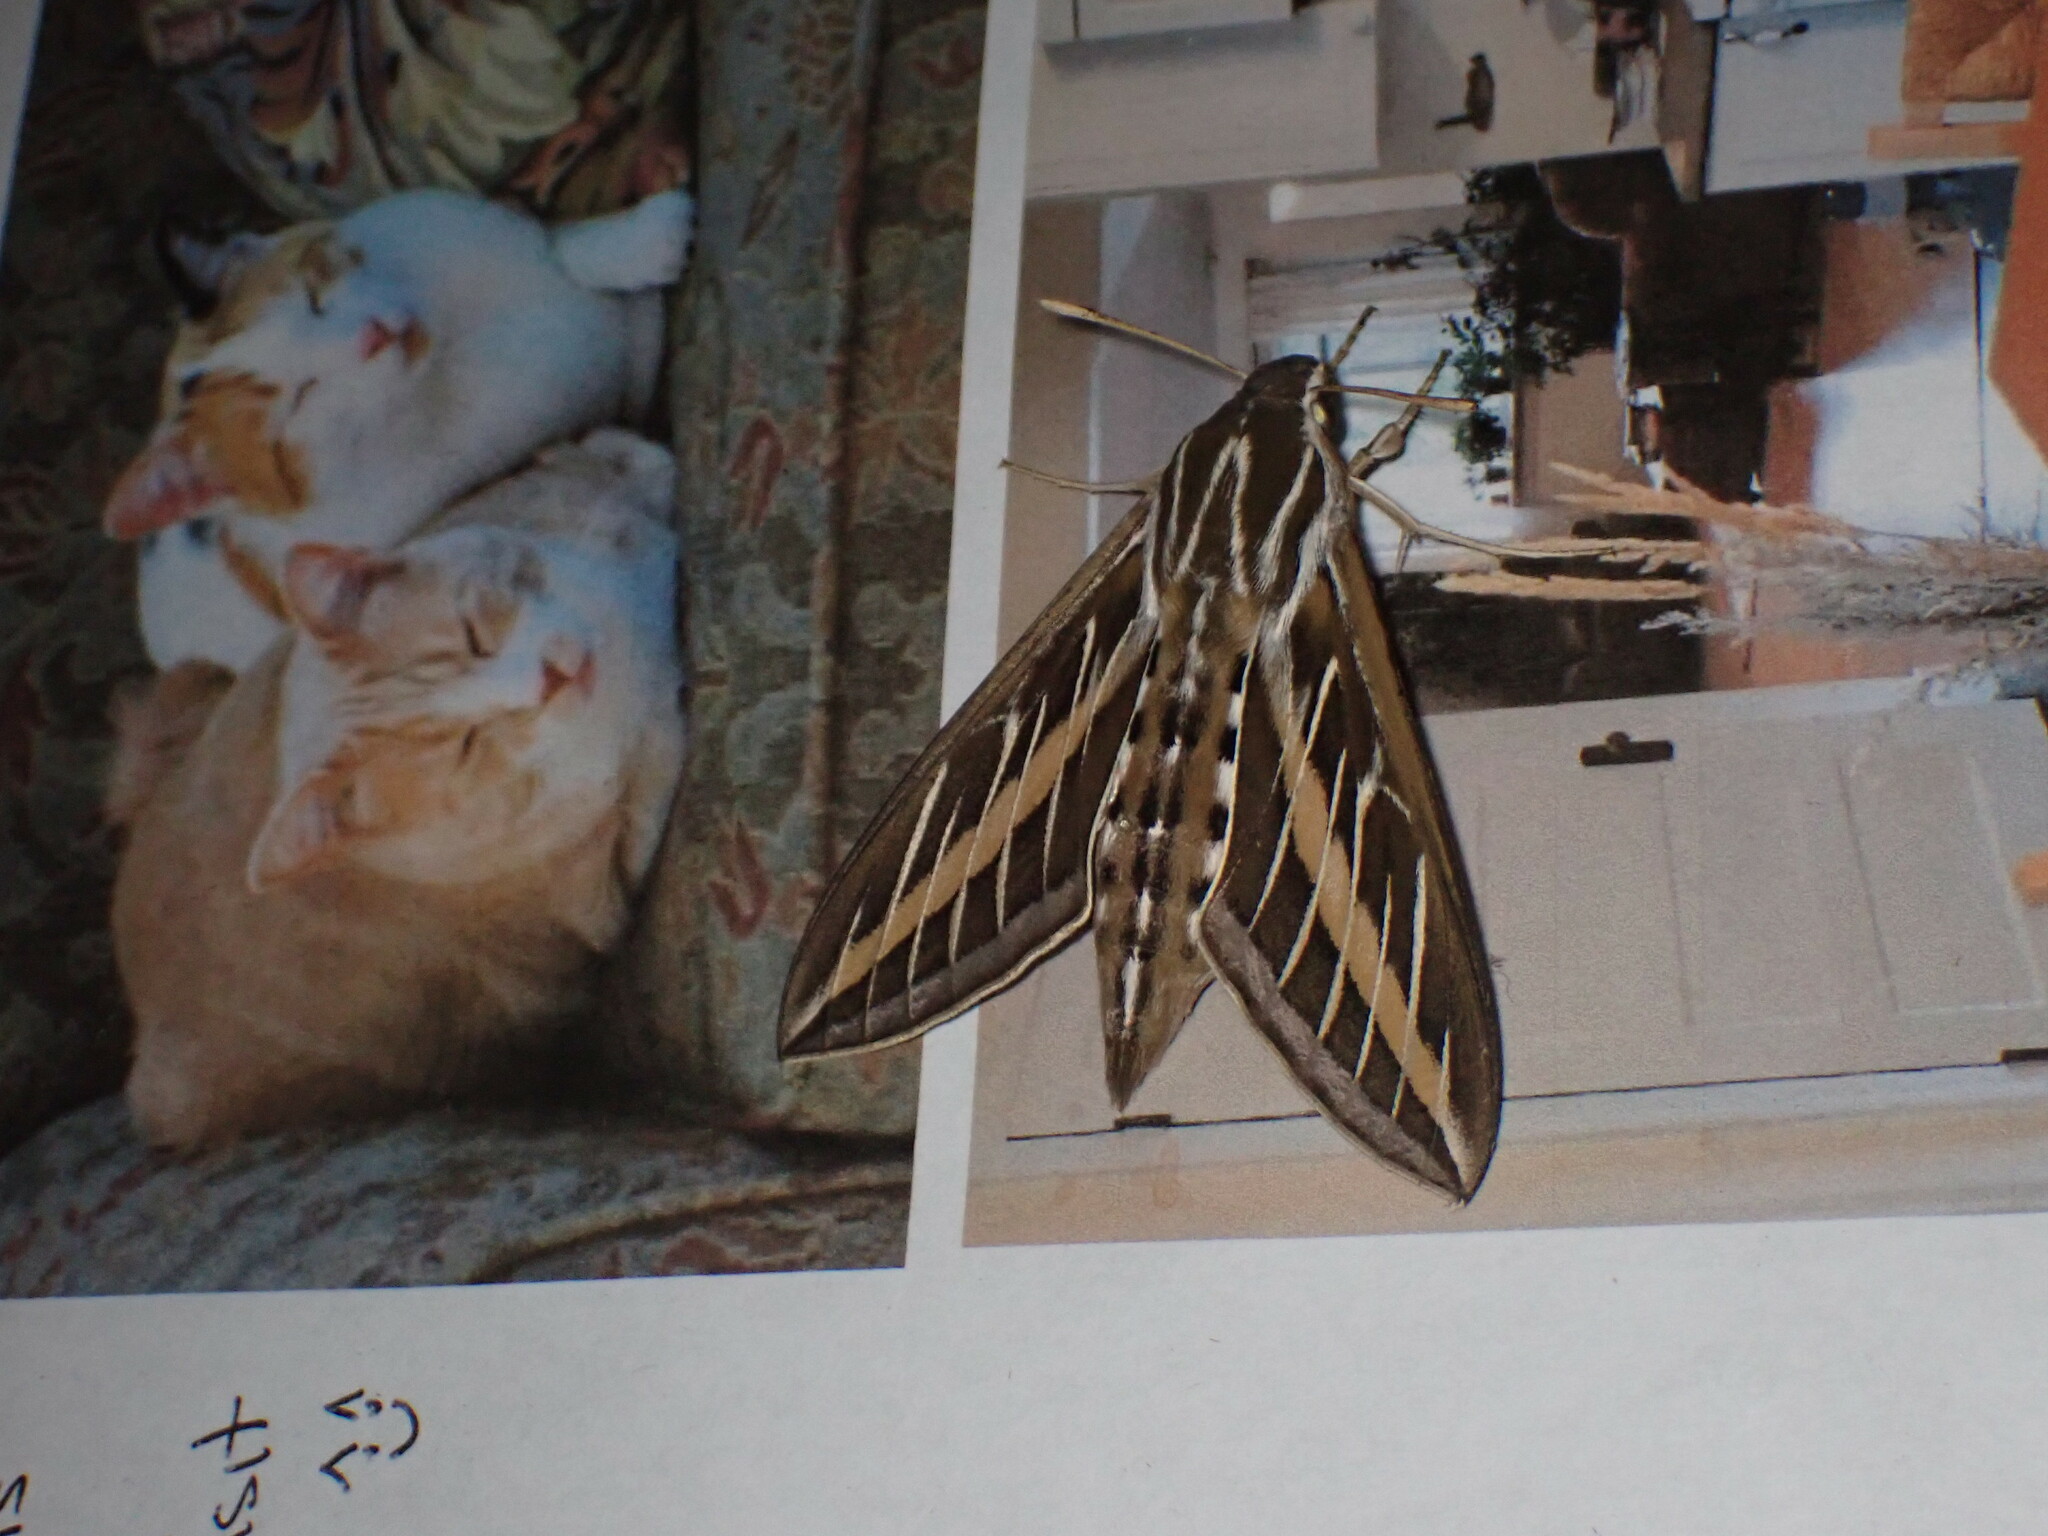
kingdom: Animalia
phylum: Arthropoda
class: Insecta
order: Lepidoptera
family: Sphingidae
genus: Hyles
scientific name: Hyles lineata
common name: White-lined sphinx
